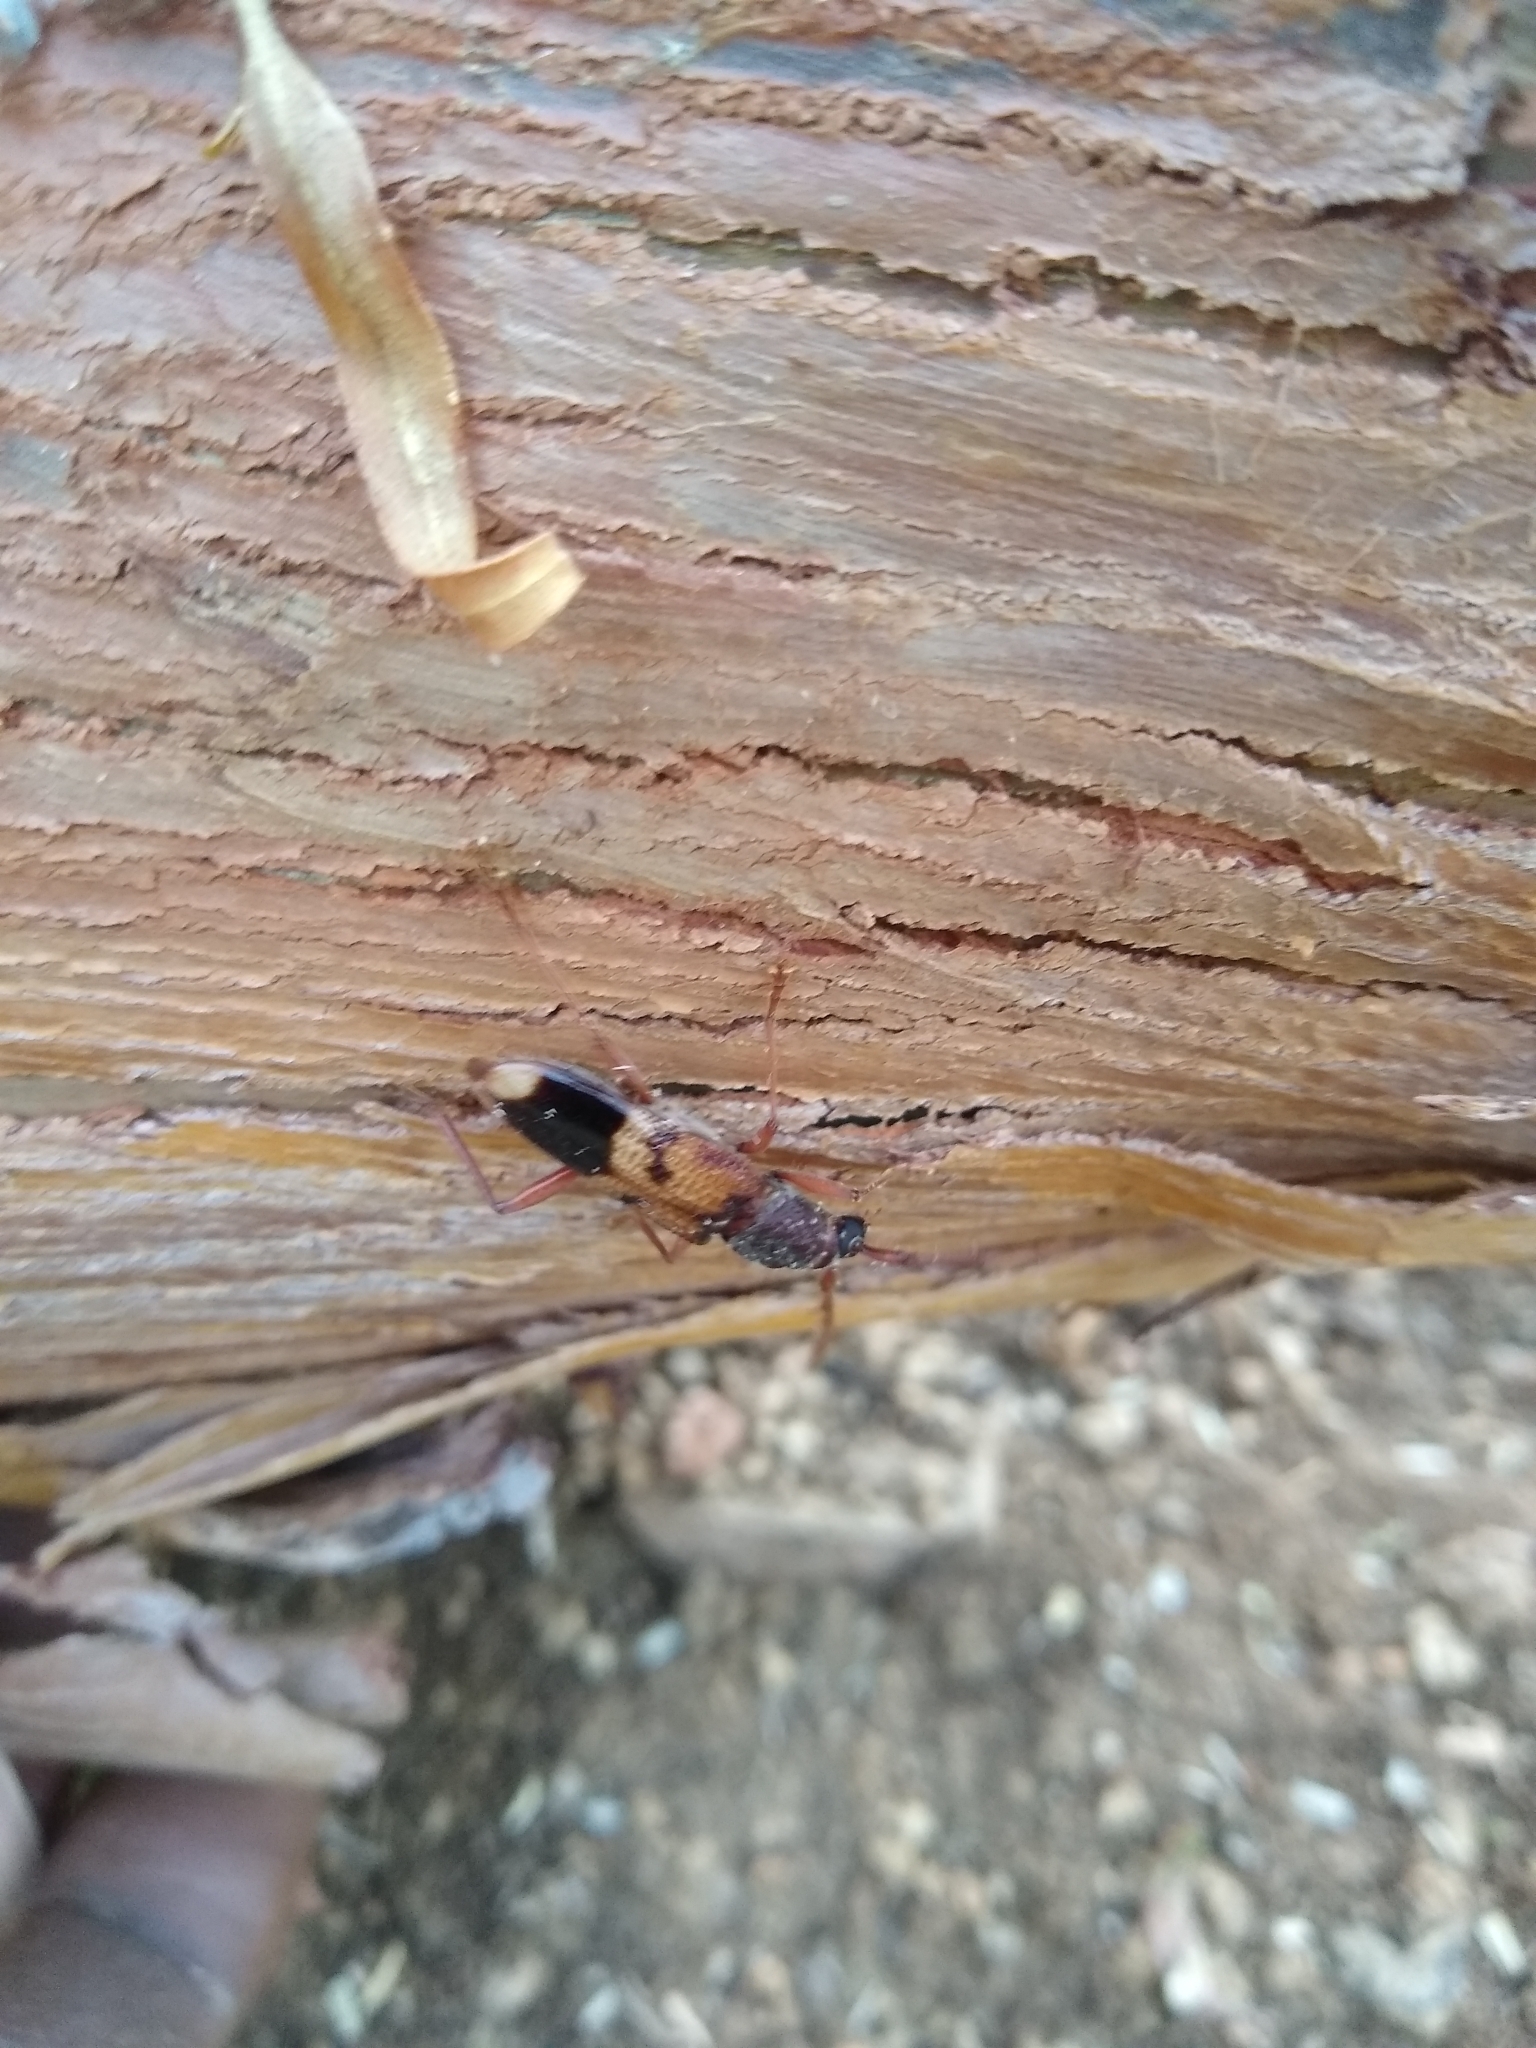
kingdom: Animalia
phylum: Arthropoda
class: Insecta
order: Coleoptera
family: Cerambycidae
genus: Phoracantha
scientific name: Phoracantha recurva
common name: Eucalyptus longhorned borer
